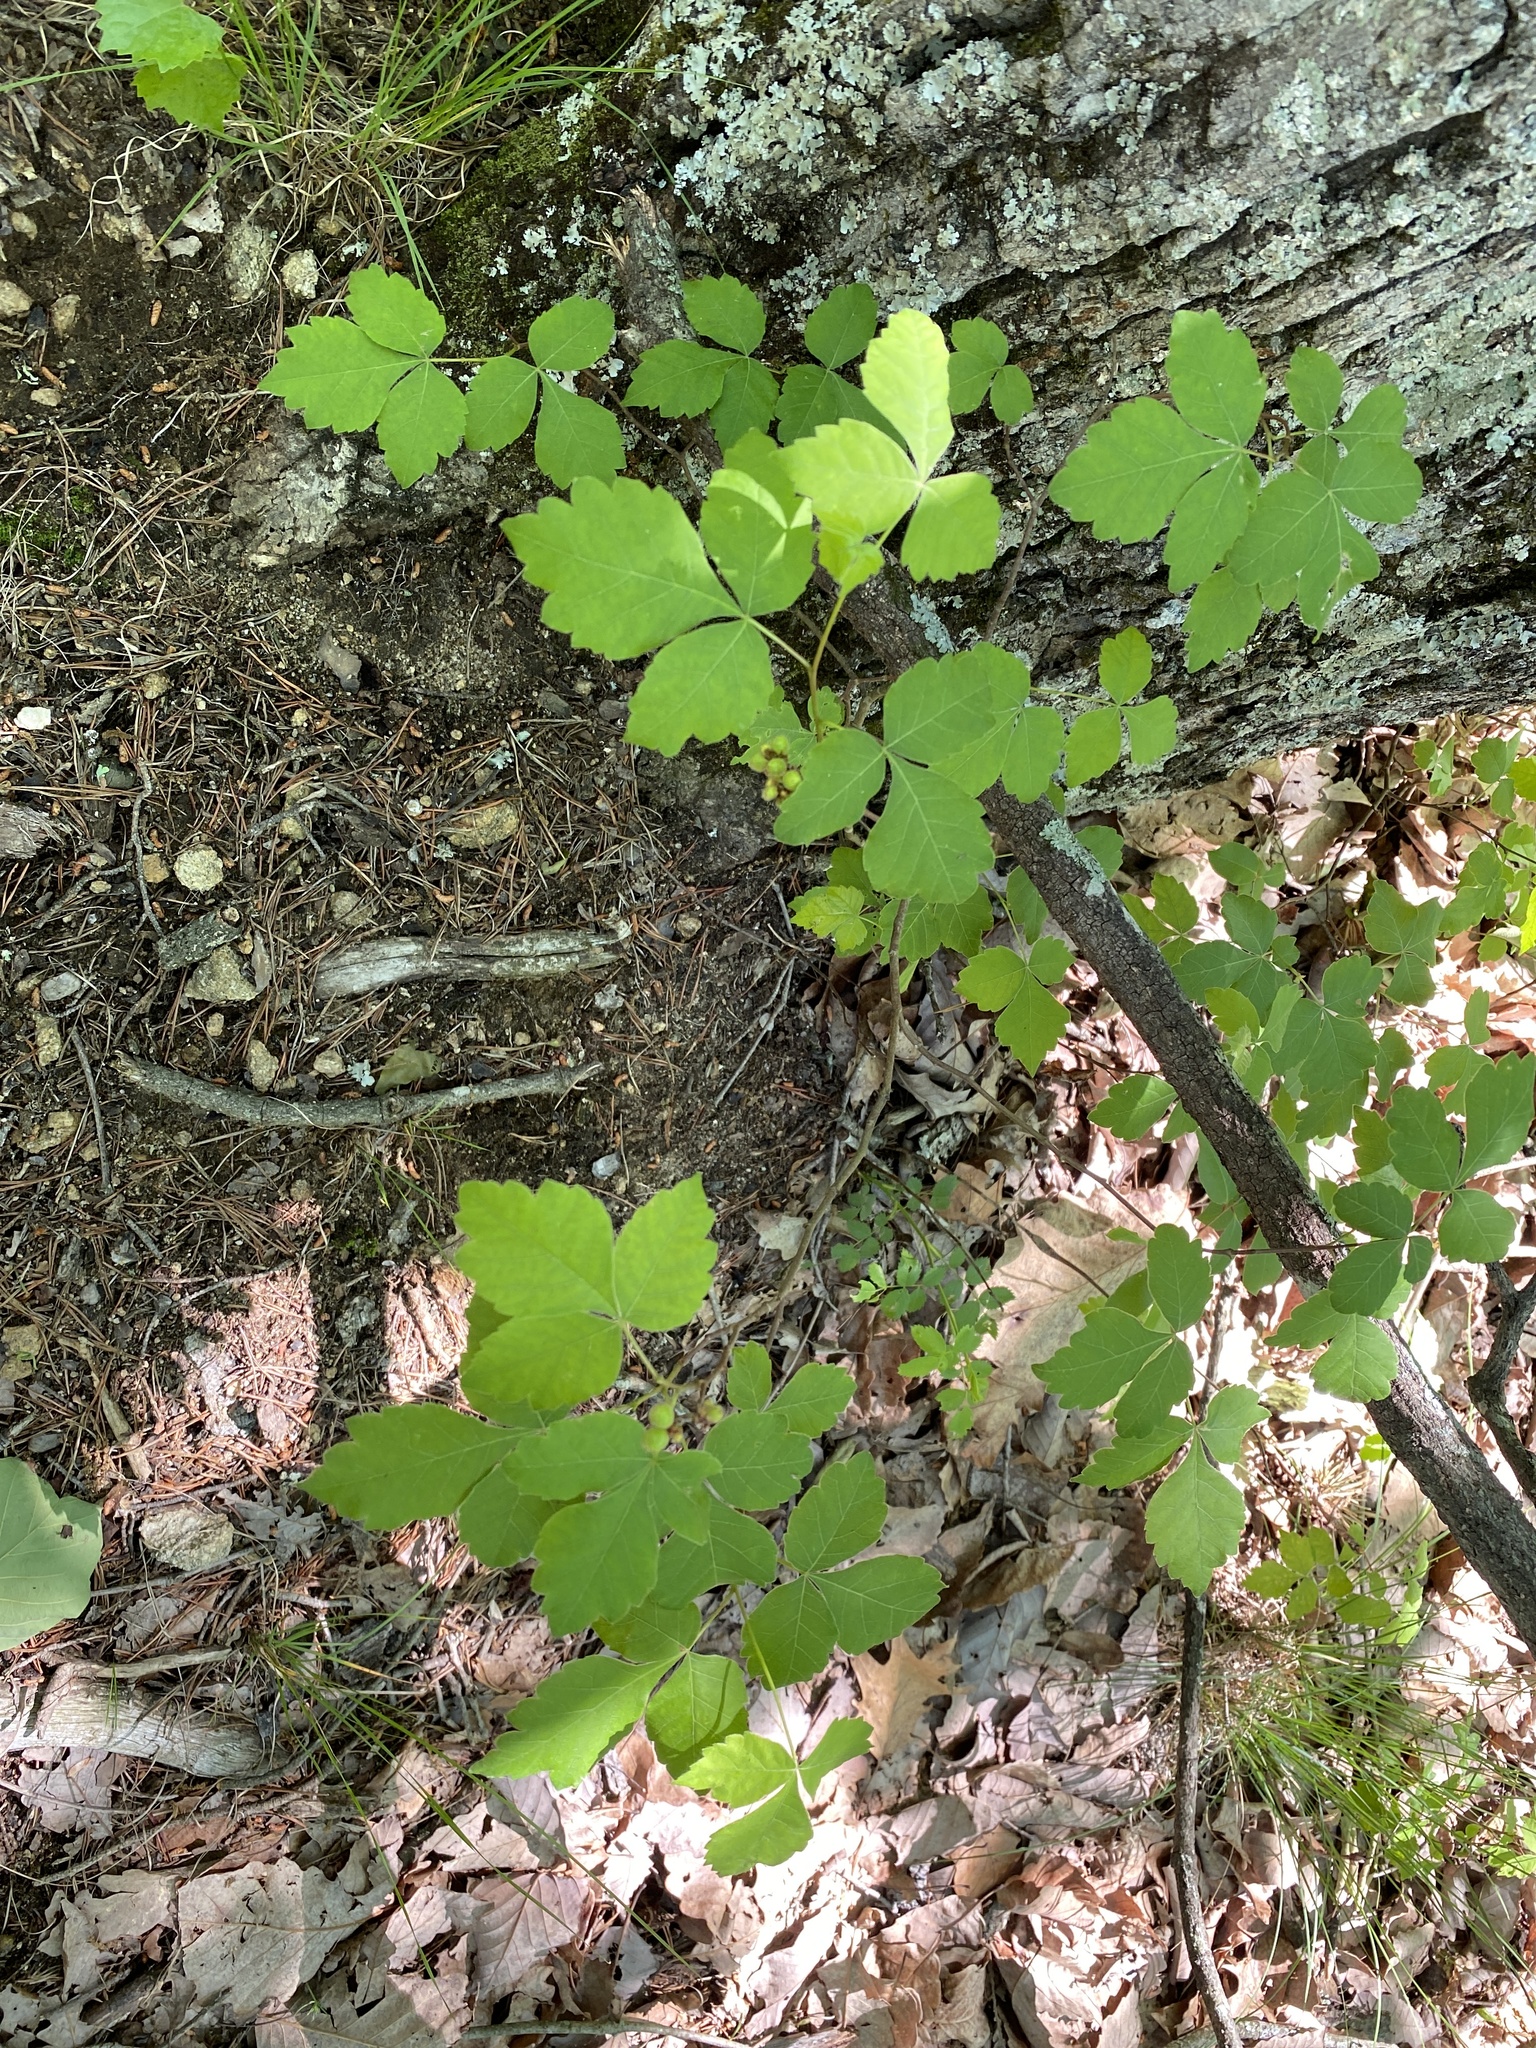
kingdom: Plantae
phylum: Tracheophyta
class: Magnoliopsida
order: Sapindales
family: Anacardiaceae
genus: Toxicodendron
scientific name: Toxicodendron pubescens
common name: Eastern poison-oak
